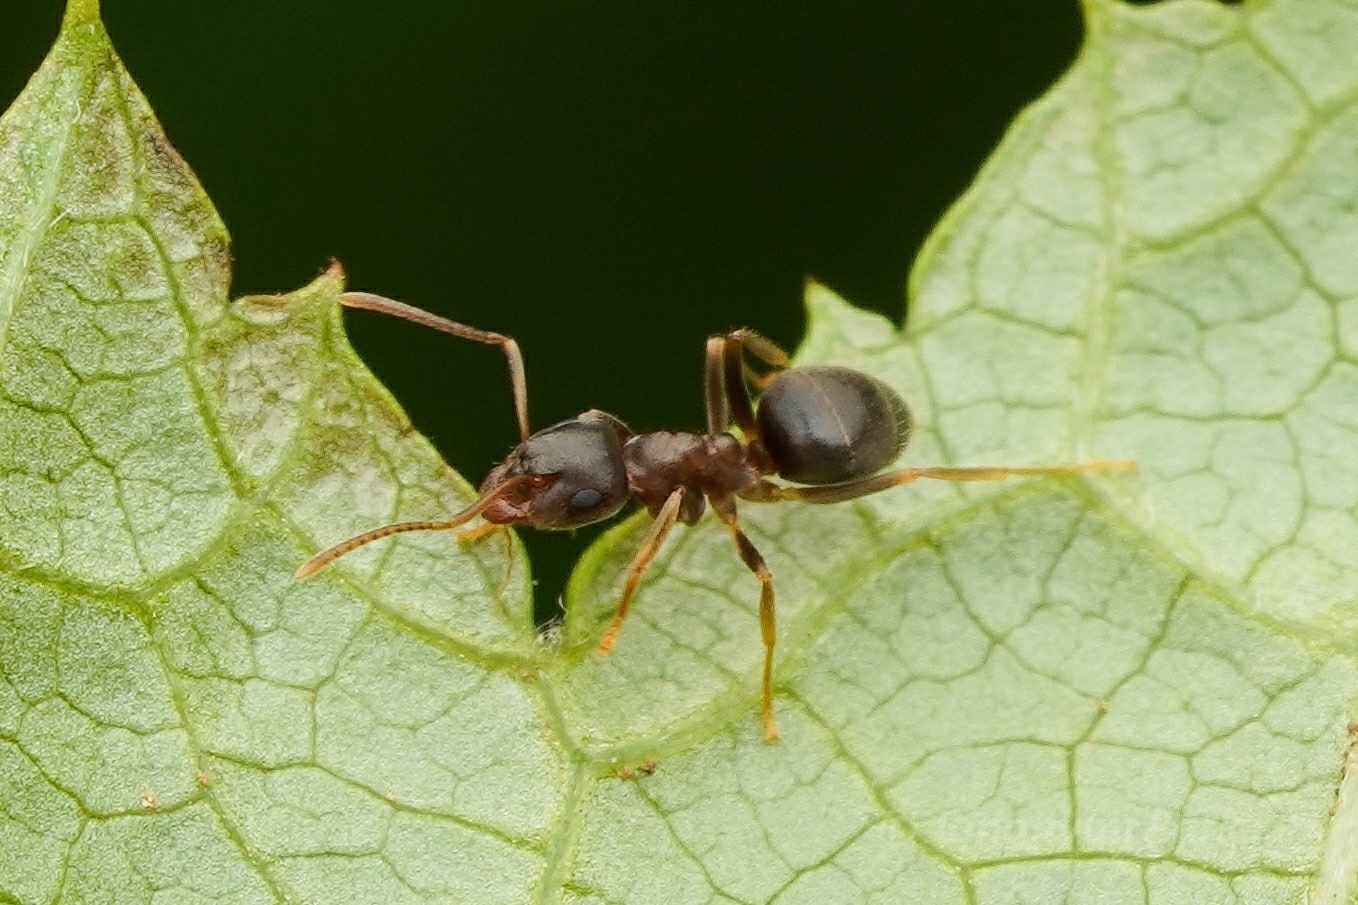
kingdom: Animalia
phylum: Arthropoda
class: Insecta
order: Hymenoptera
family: Formicidae
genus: Lasius
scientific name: Lasius
